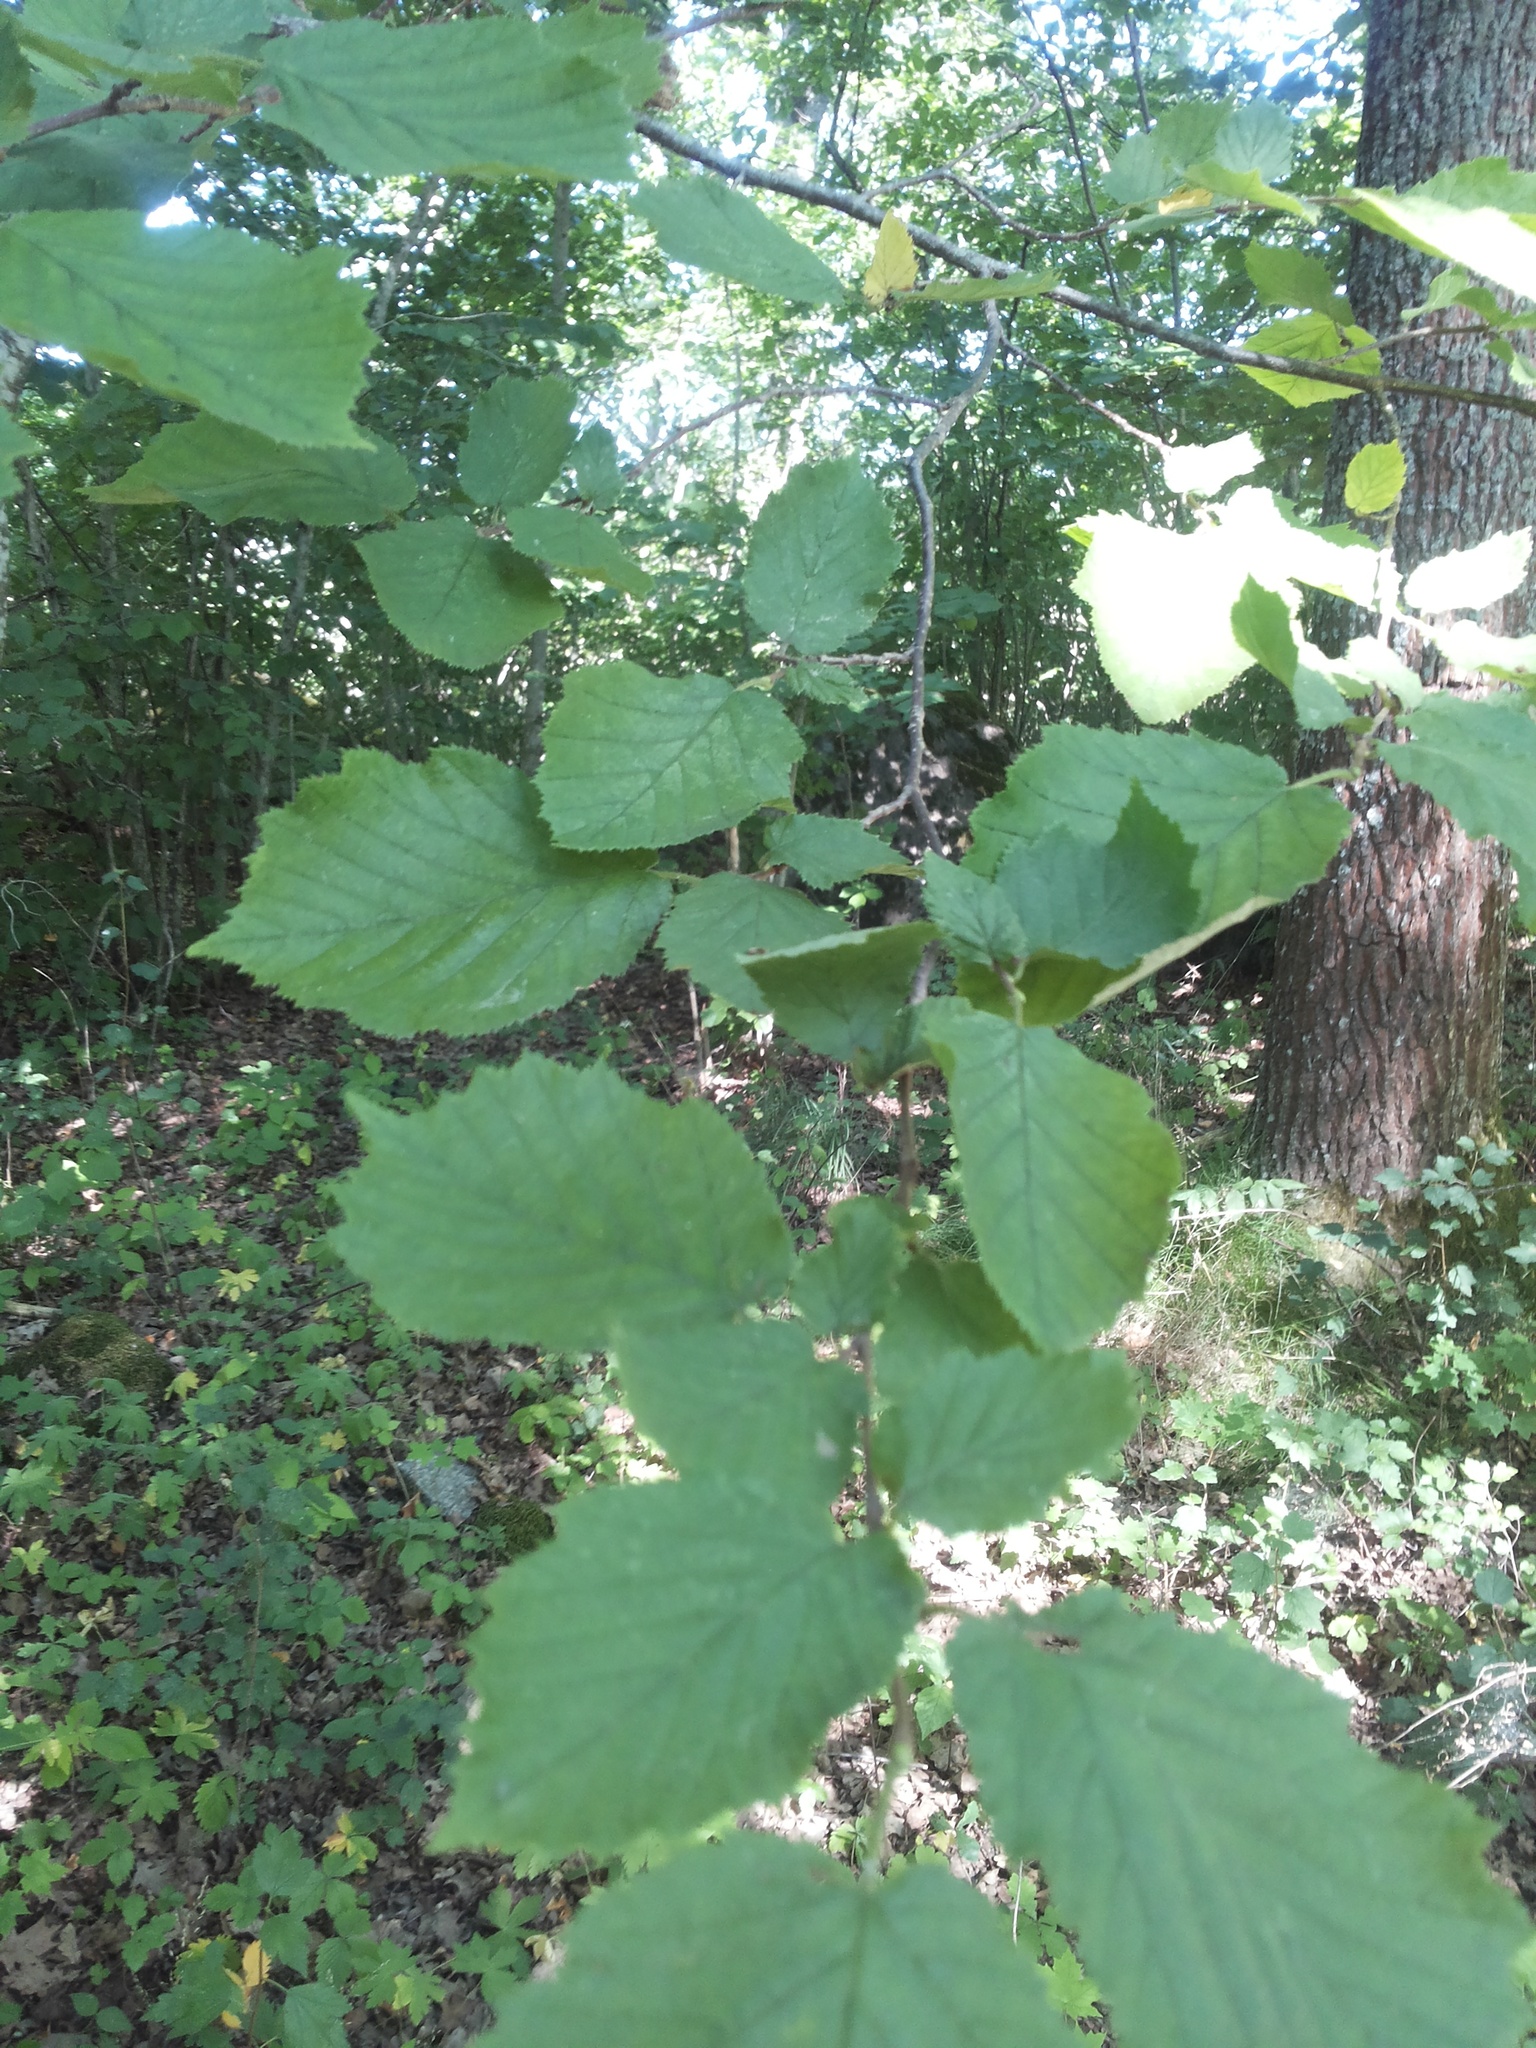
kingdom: Plantae
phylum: Tracheophyta
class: Magnoliopsida
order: Fagales
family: Betulaceae
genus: Corylus
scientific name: Corylus avellana
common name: European hazel
